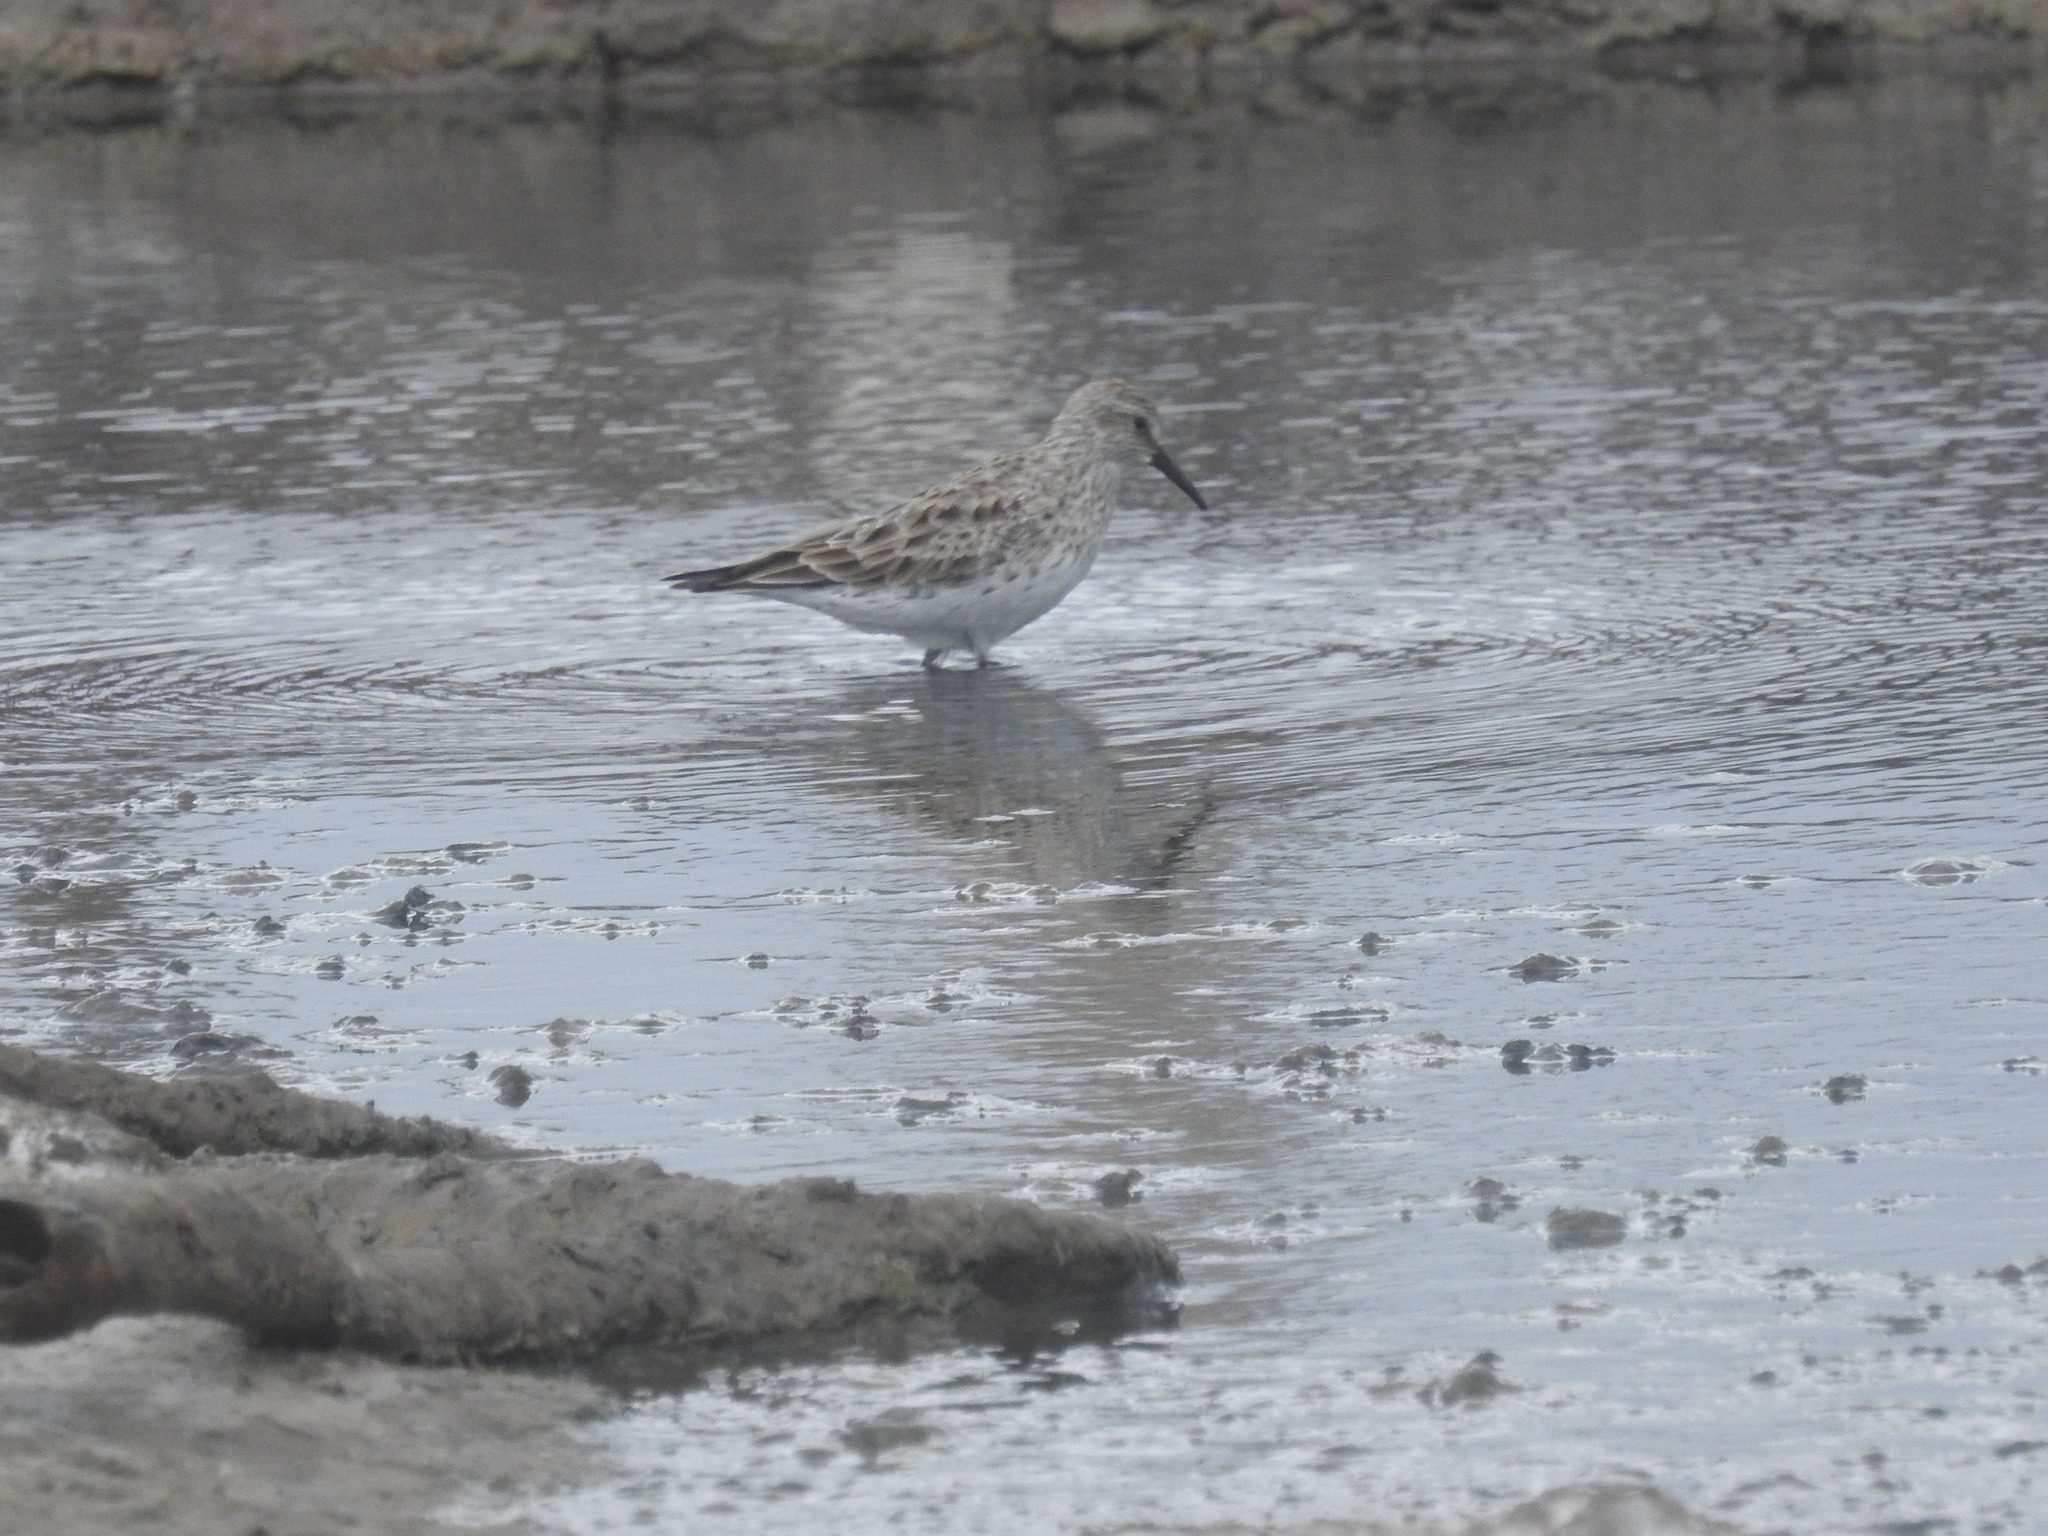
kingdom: Animalia
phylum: Chordata
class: Aves
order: Charadriiformes
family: Scolopacidae
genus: Calidris
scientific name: Calidris fuscicollis
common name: White-rumped sandpiper
